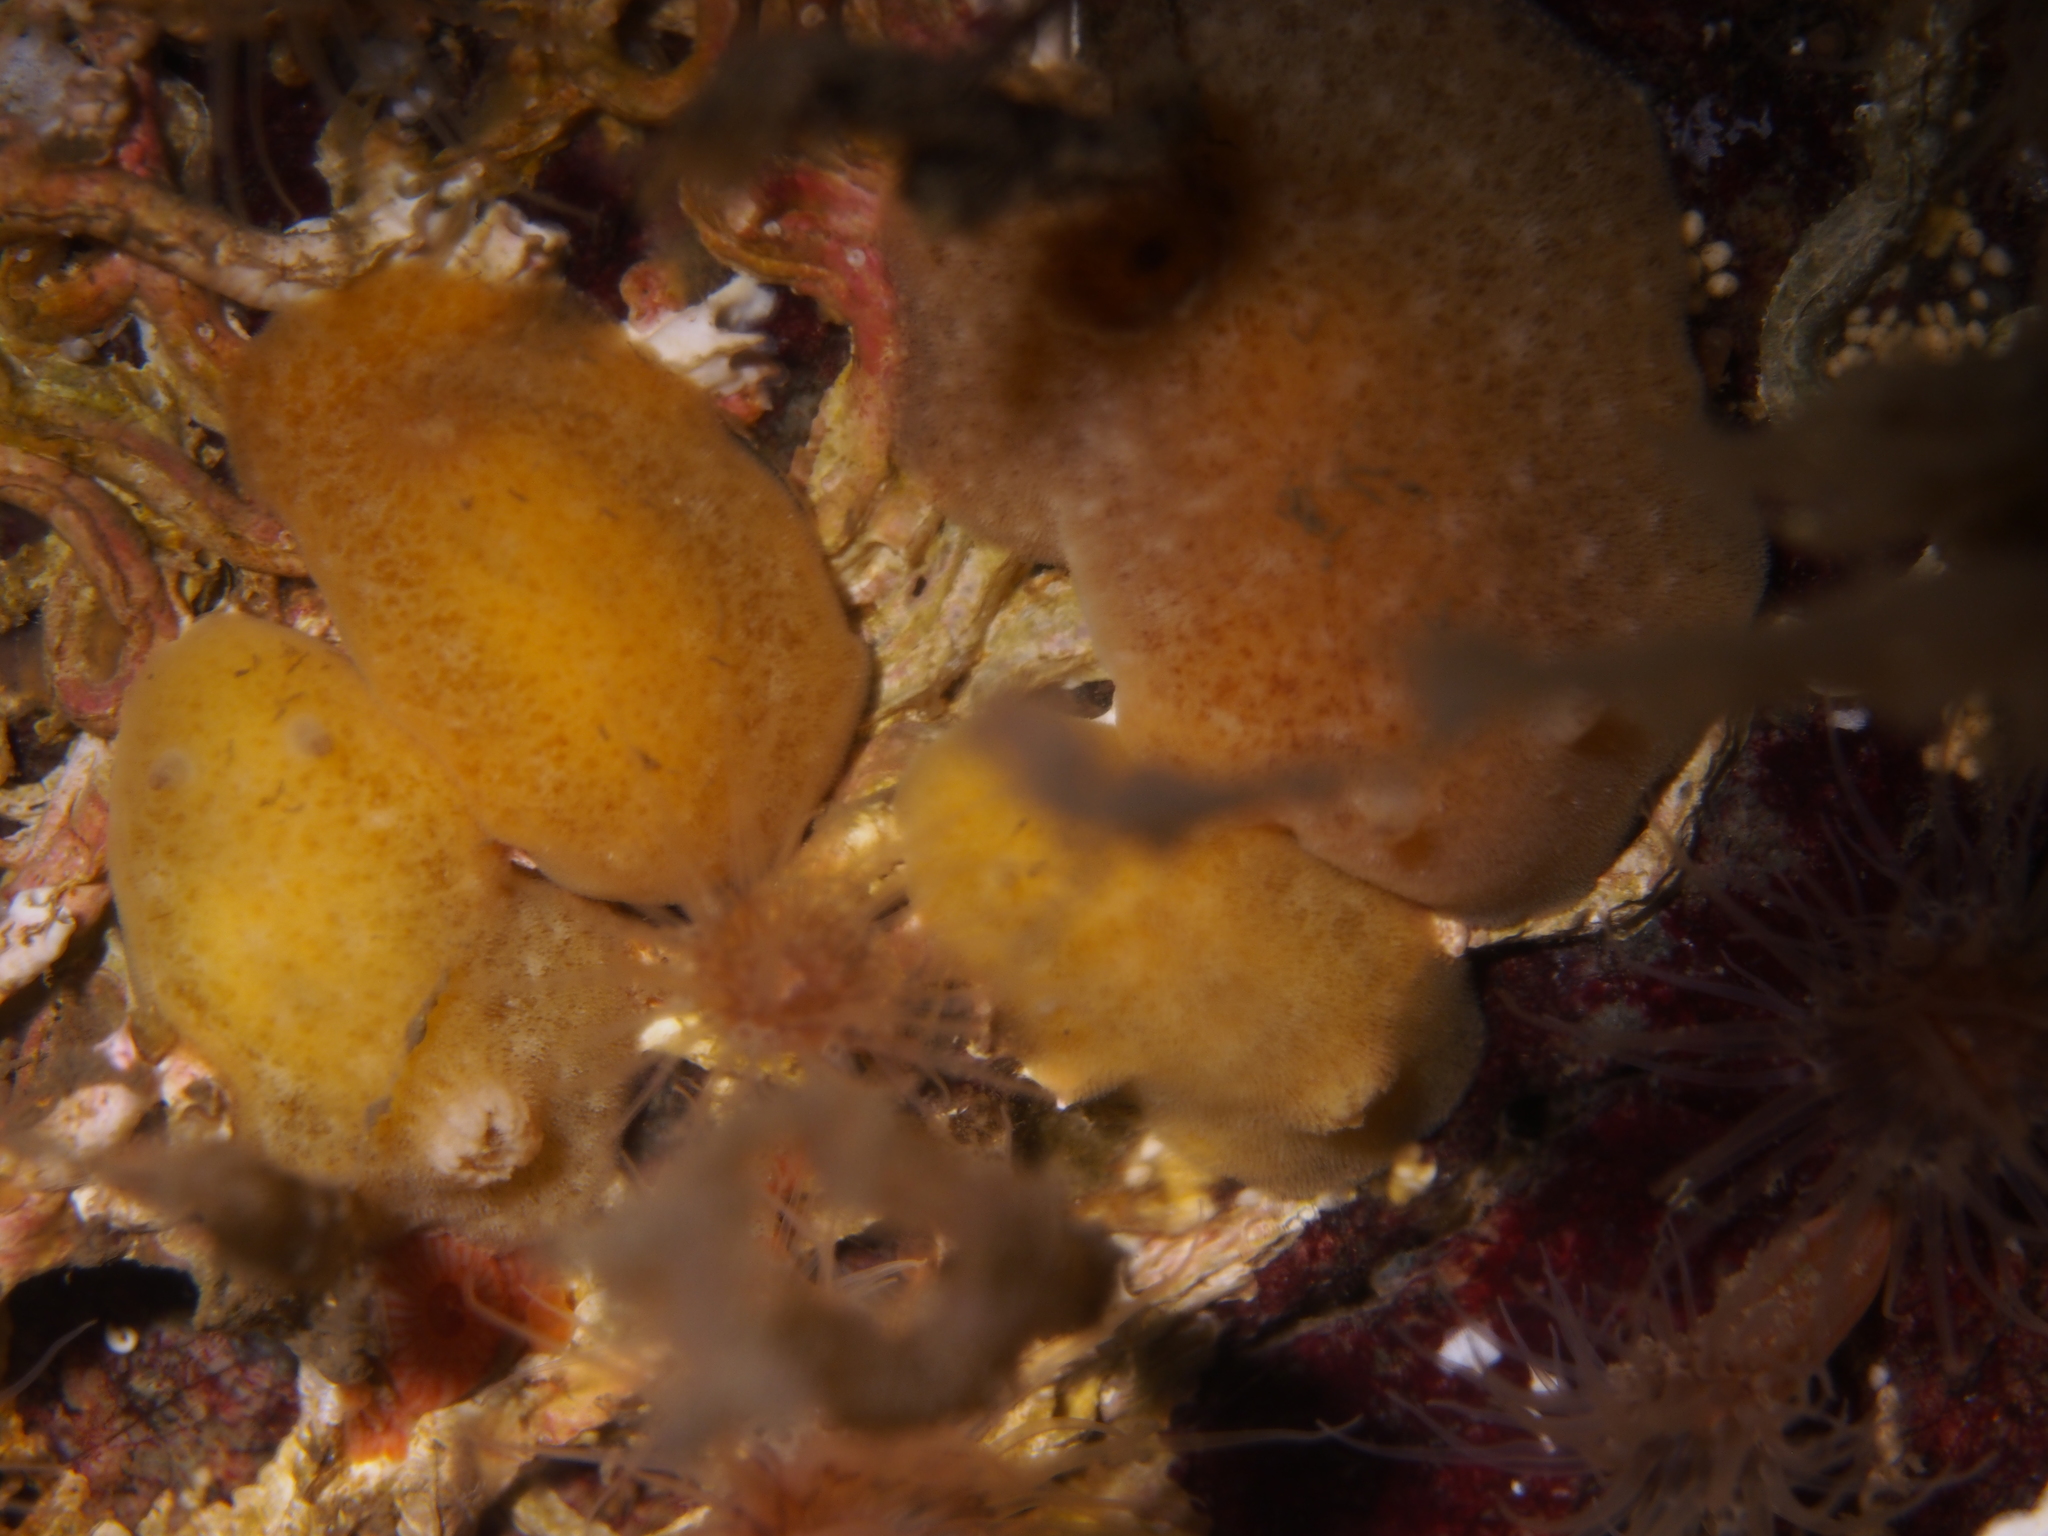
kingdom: Animalia
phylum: Mollusca
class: Gastropoda
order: Nudibranchia
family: Discodorididae
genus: Jorunna
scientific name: Jorunna tomentosa
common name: Grey sea slug
